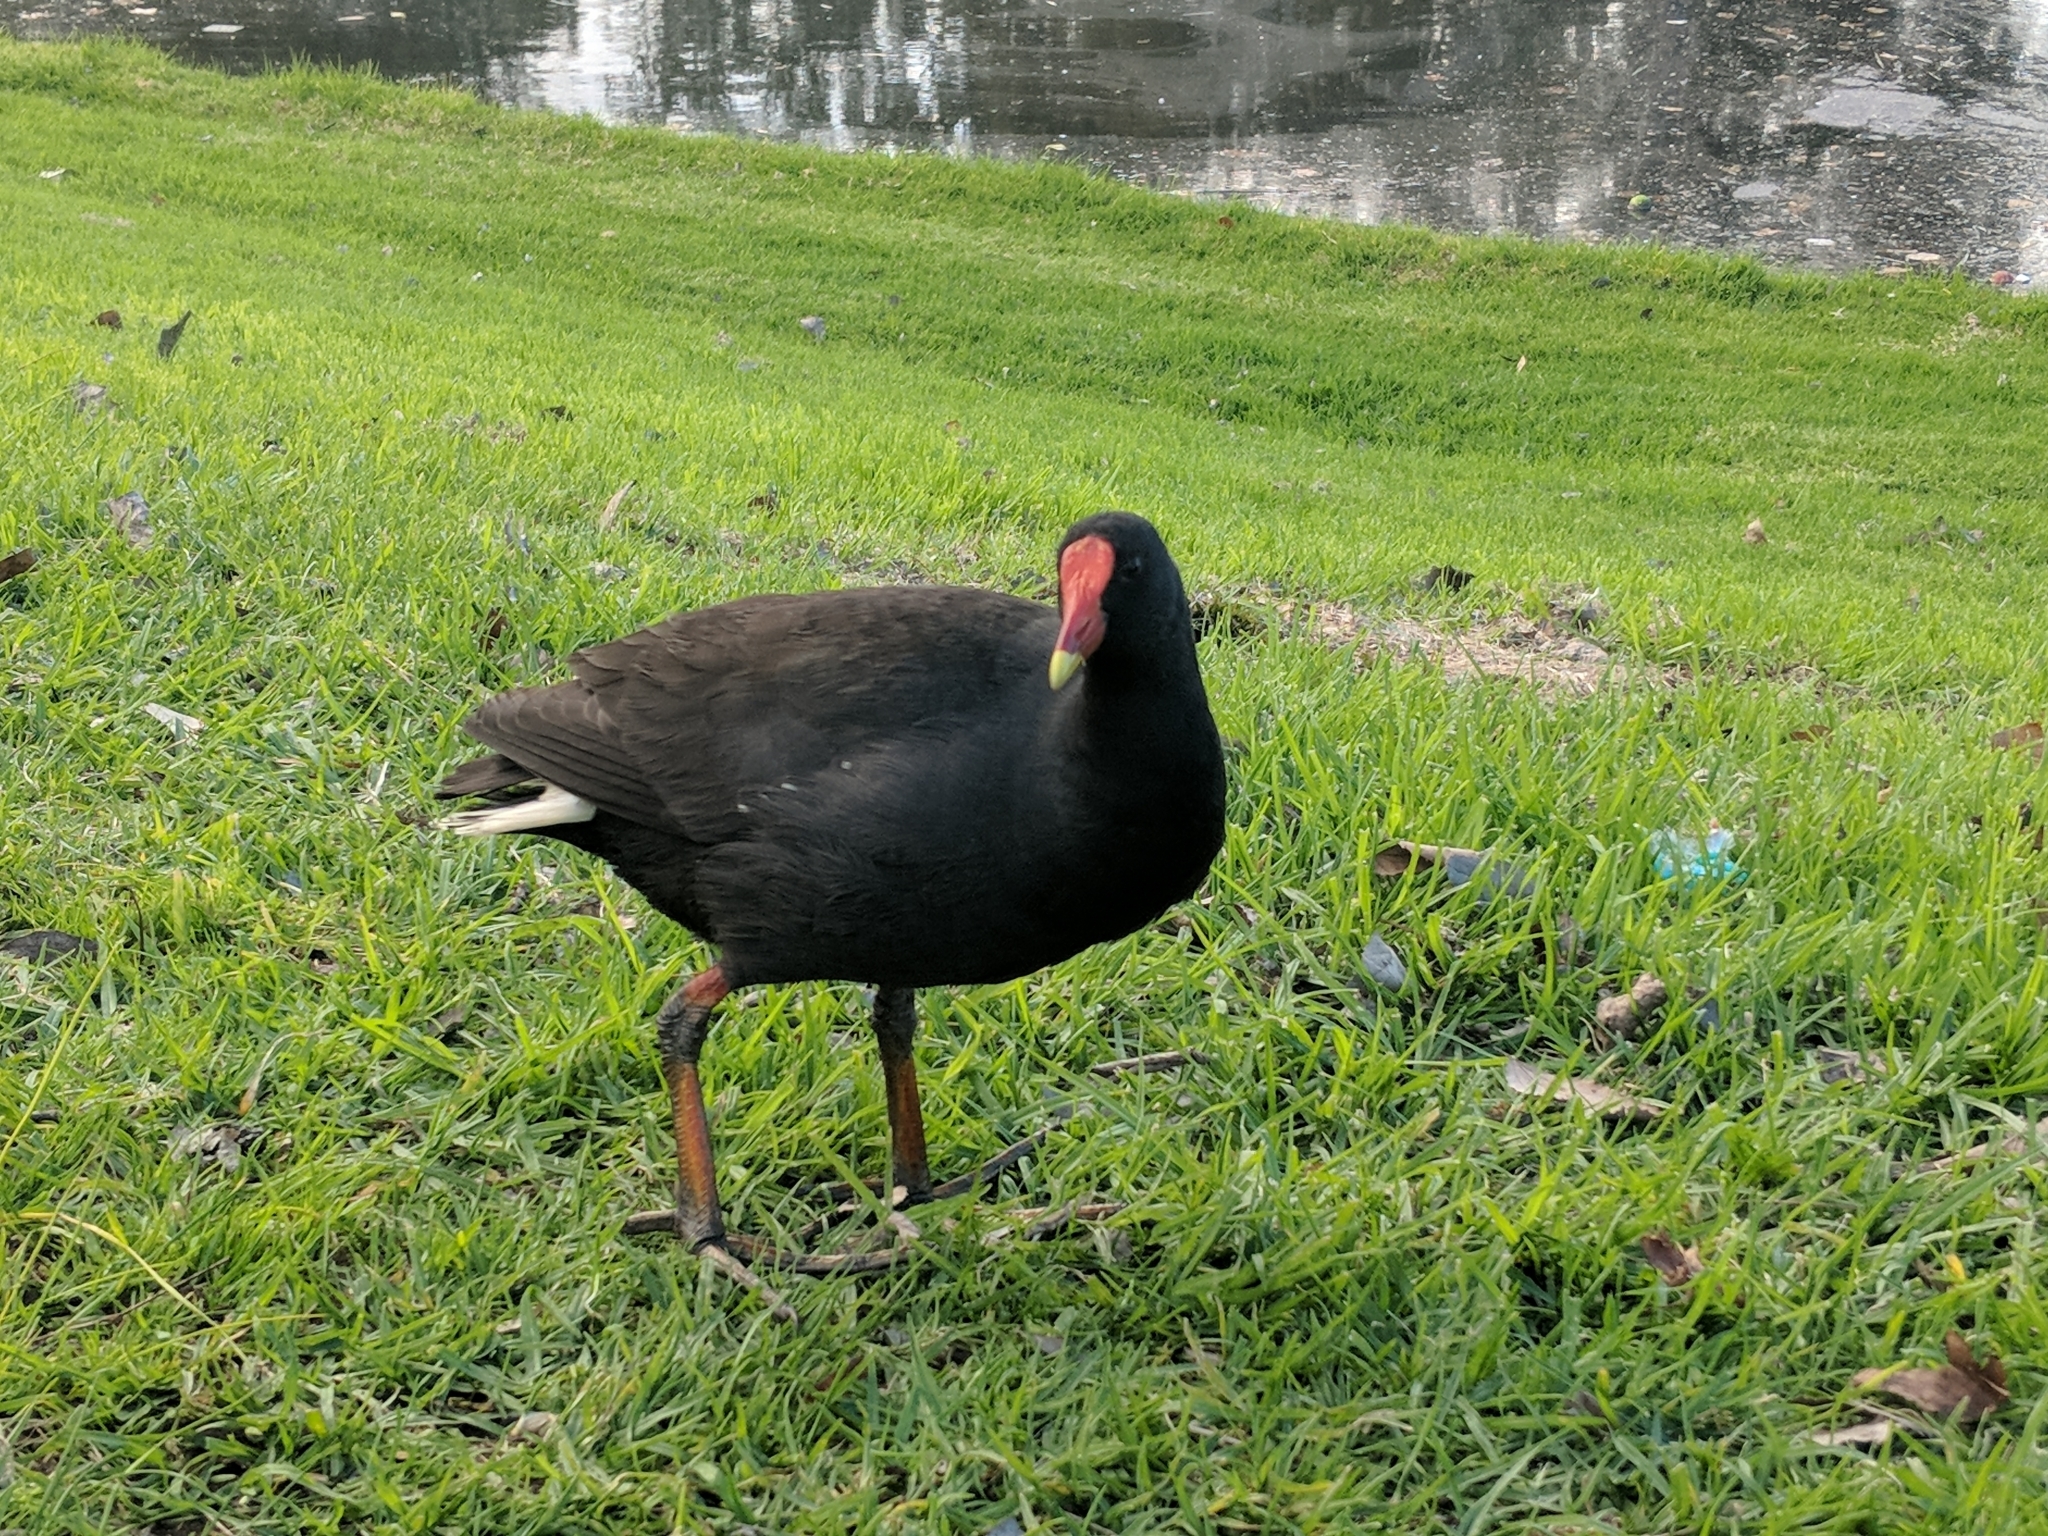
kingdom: Animalia
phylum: Chordata
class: Aves
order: Gruiformes
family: Rallidae
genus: Gallinula
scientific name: Gallinula tenebrosa
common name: Dusky moorhen
